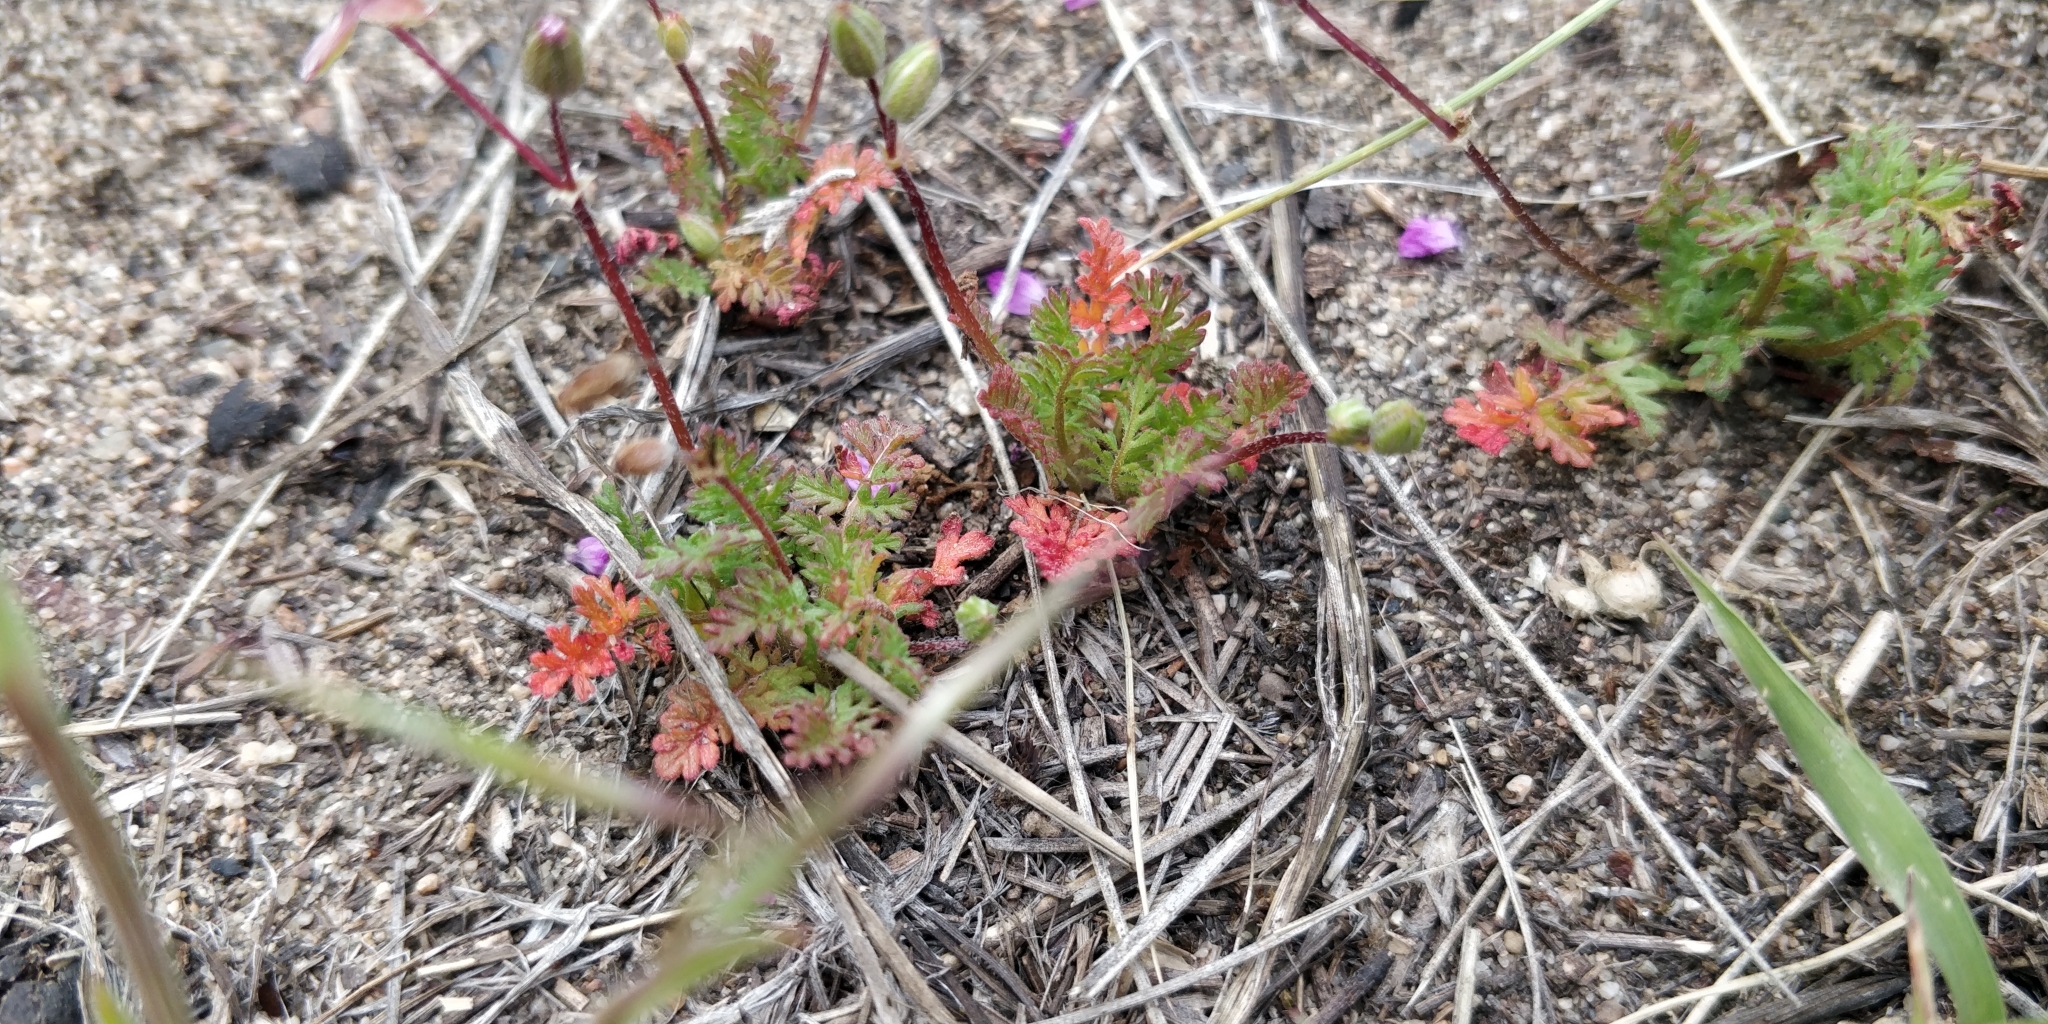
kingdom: Plantae
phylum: Tracheophyta
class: Magnoliopsida
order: Geraniales
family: Geraniaceae
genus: Erodium
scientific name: Erodium cicutarium
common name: Common stork's-bill
